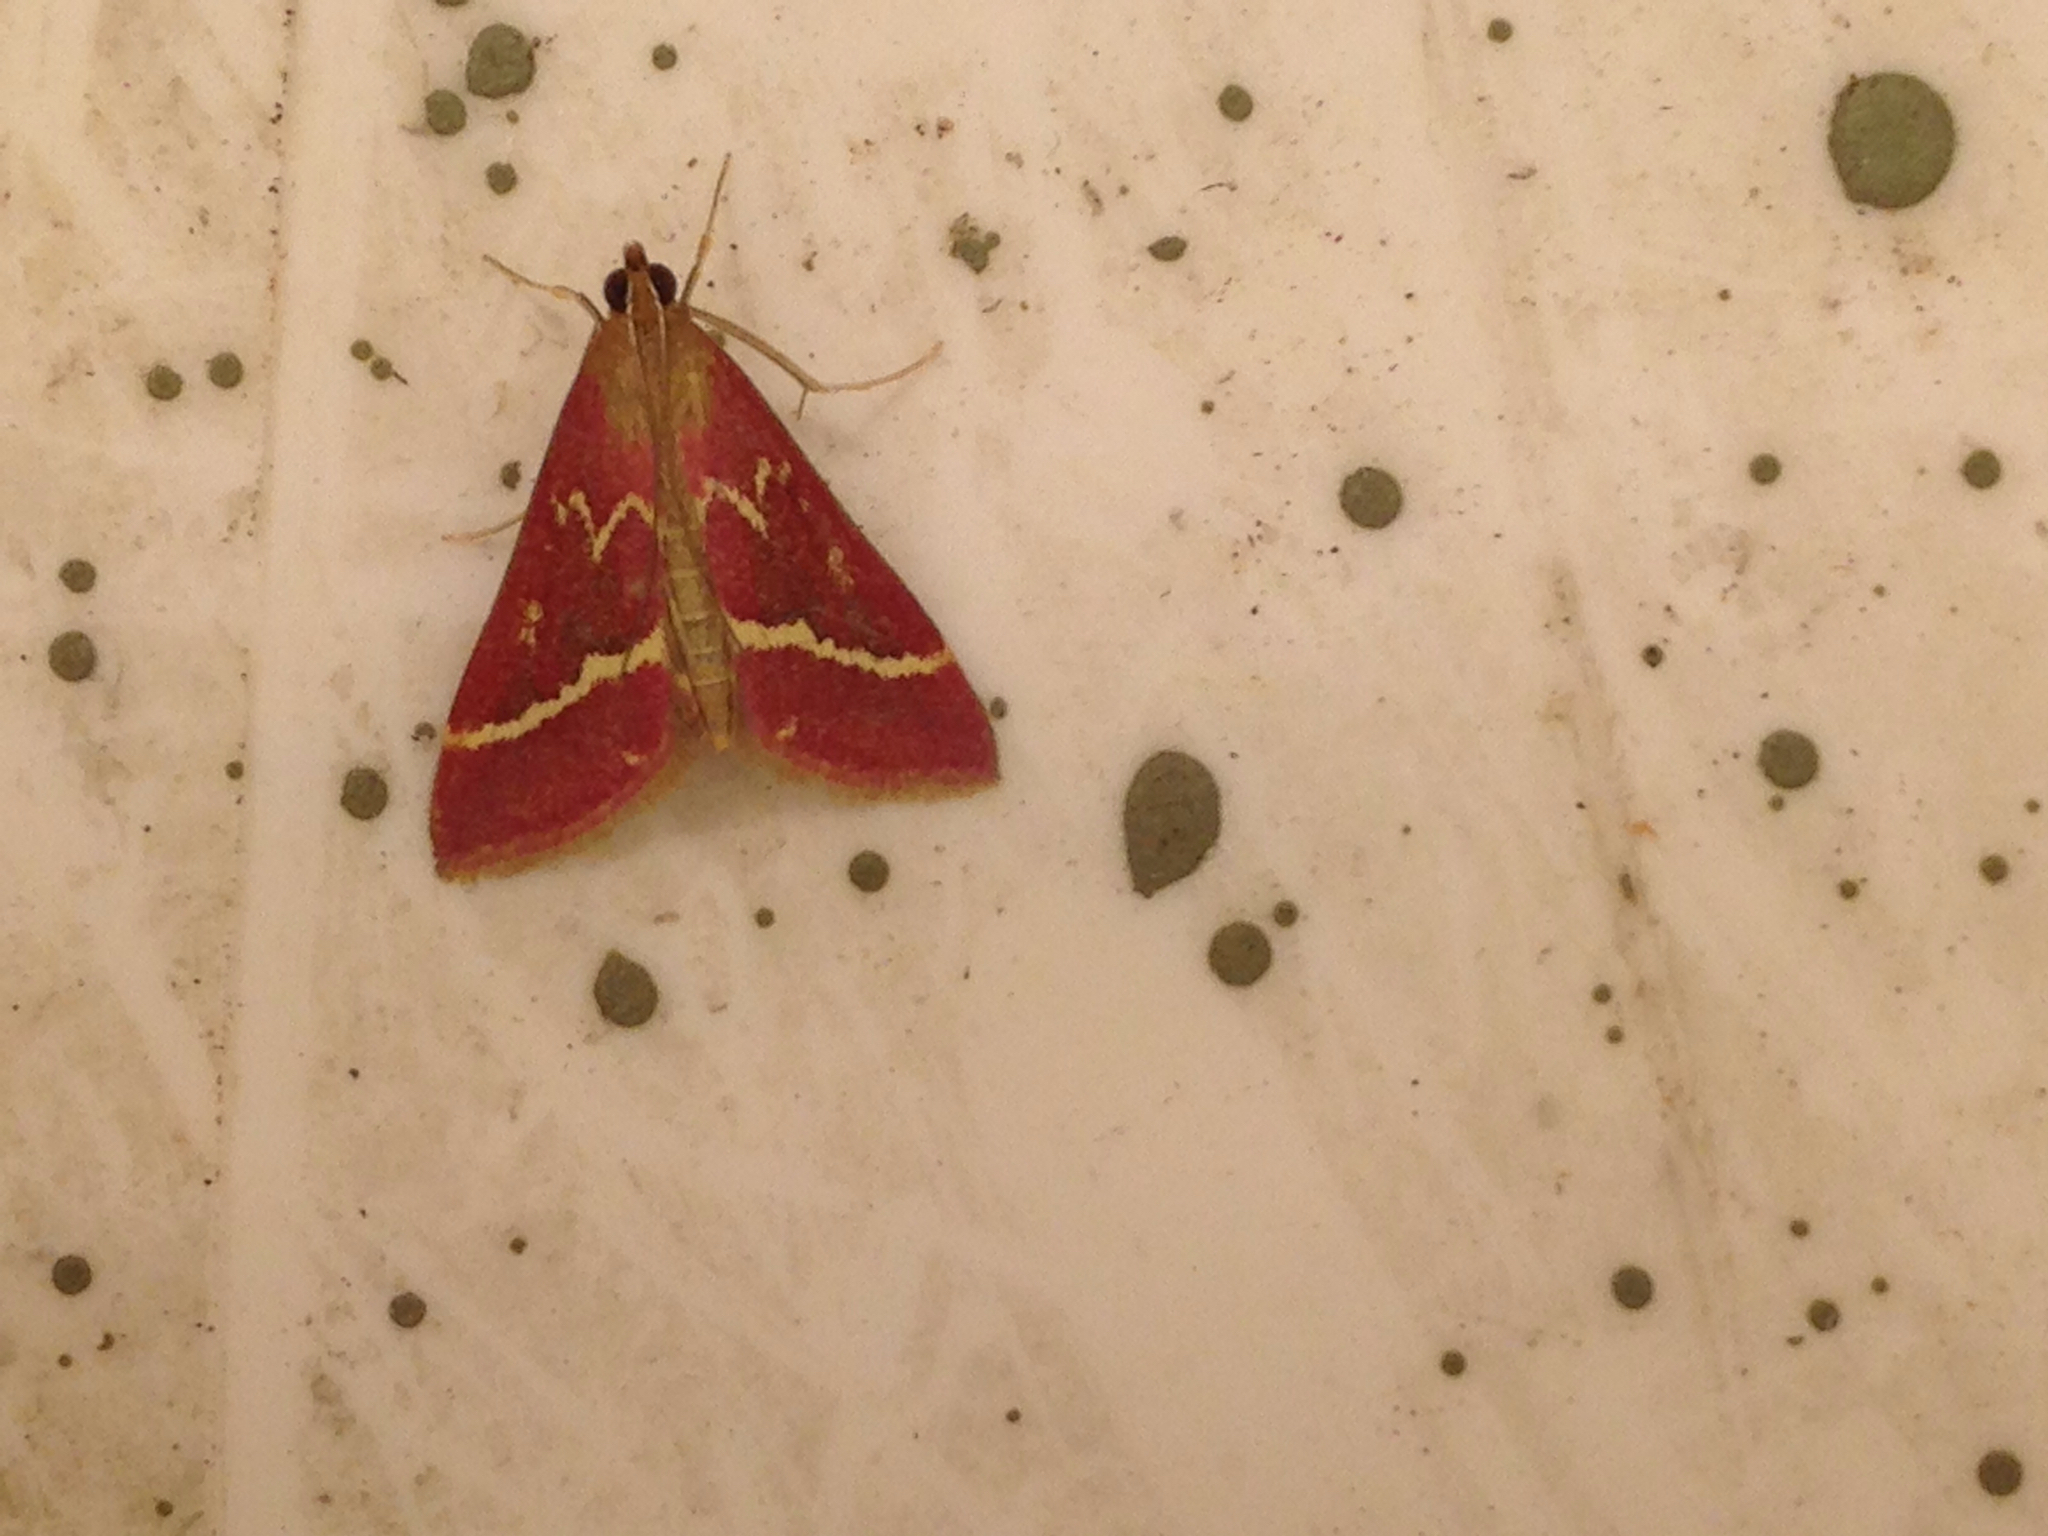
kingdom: Animalia
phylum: Arthropoda
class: Insecta
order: Lepidoptera
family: Crambidae
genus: Pyrausta
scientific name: Pyrausta volupialis
